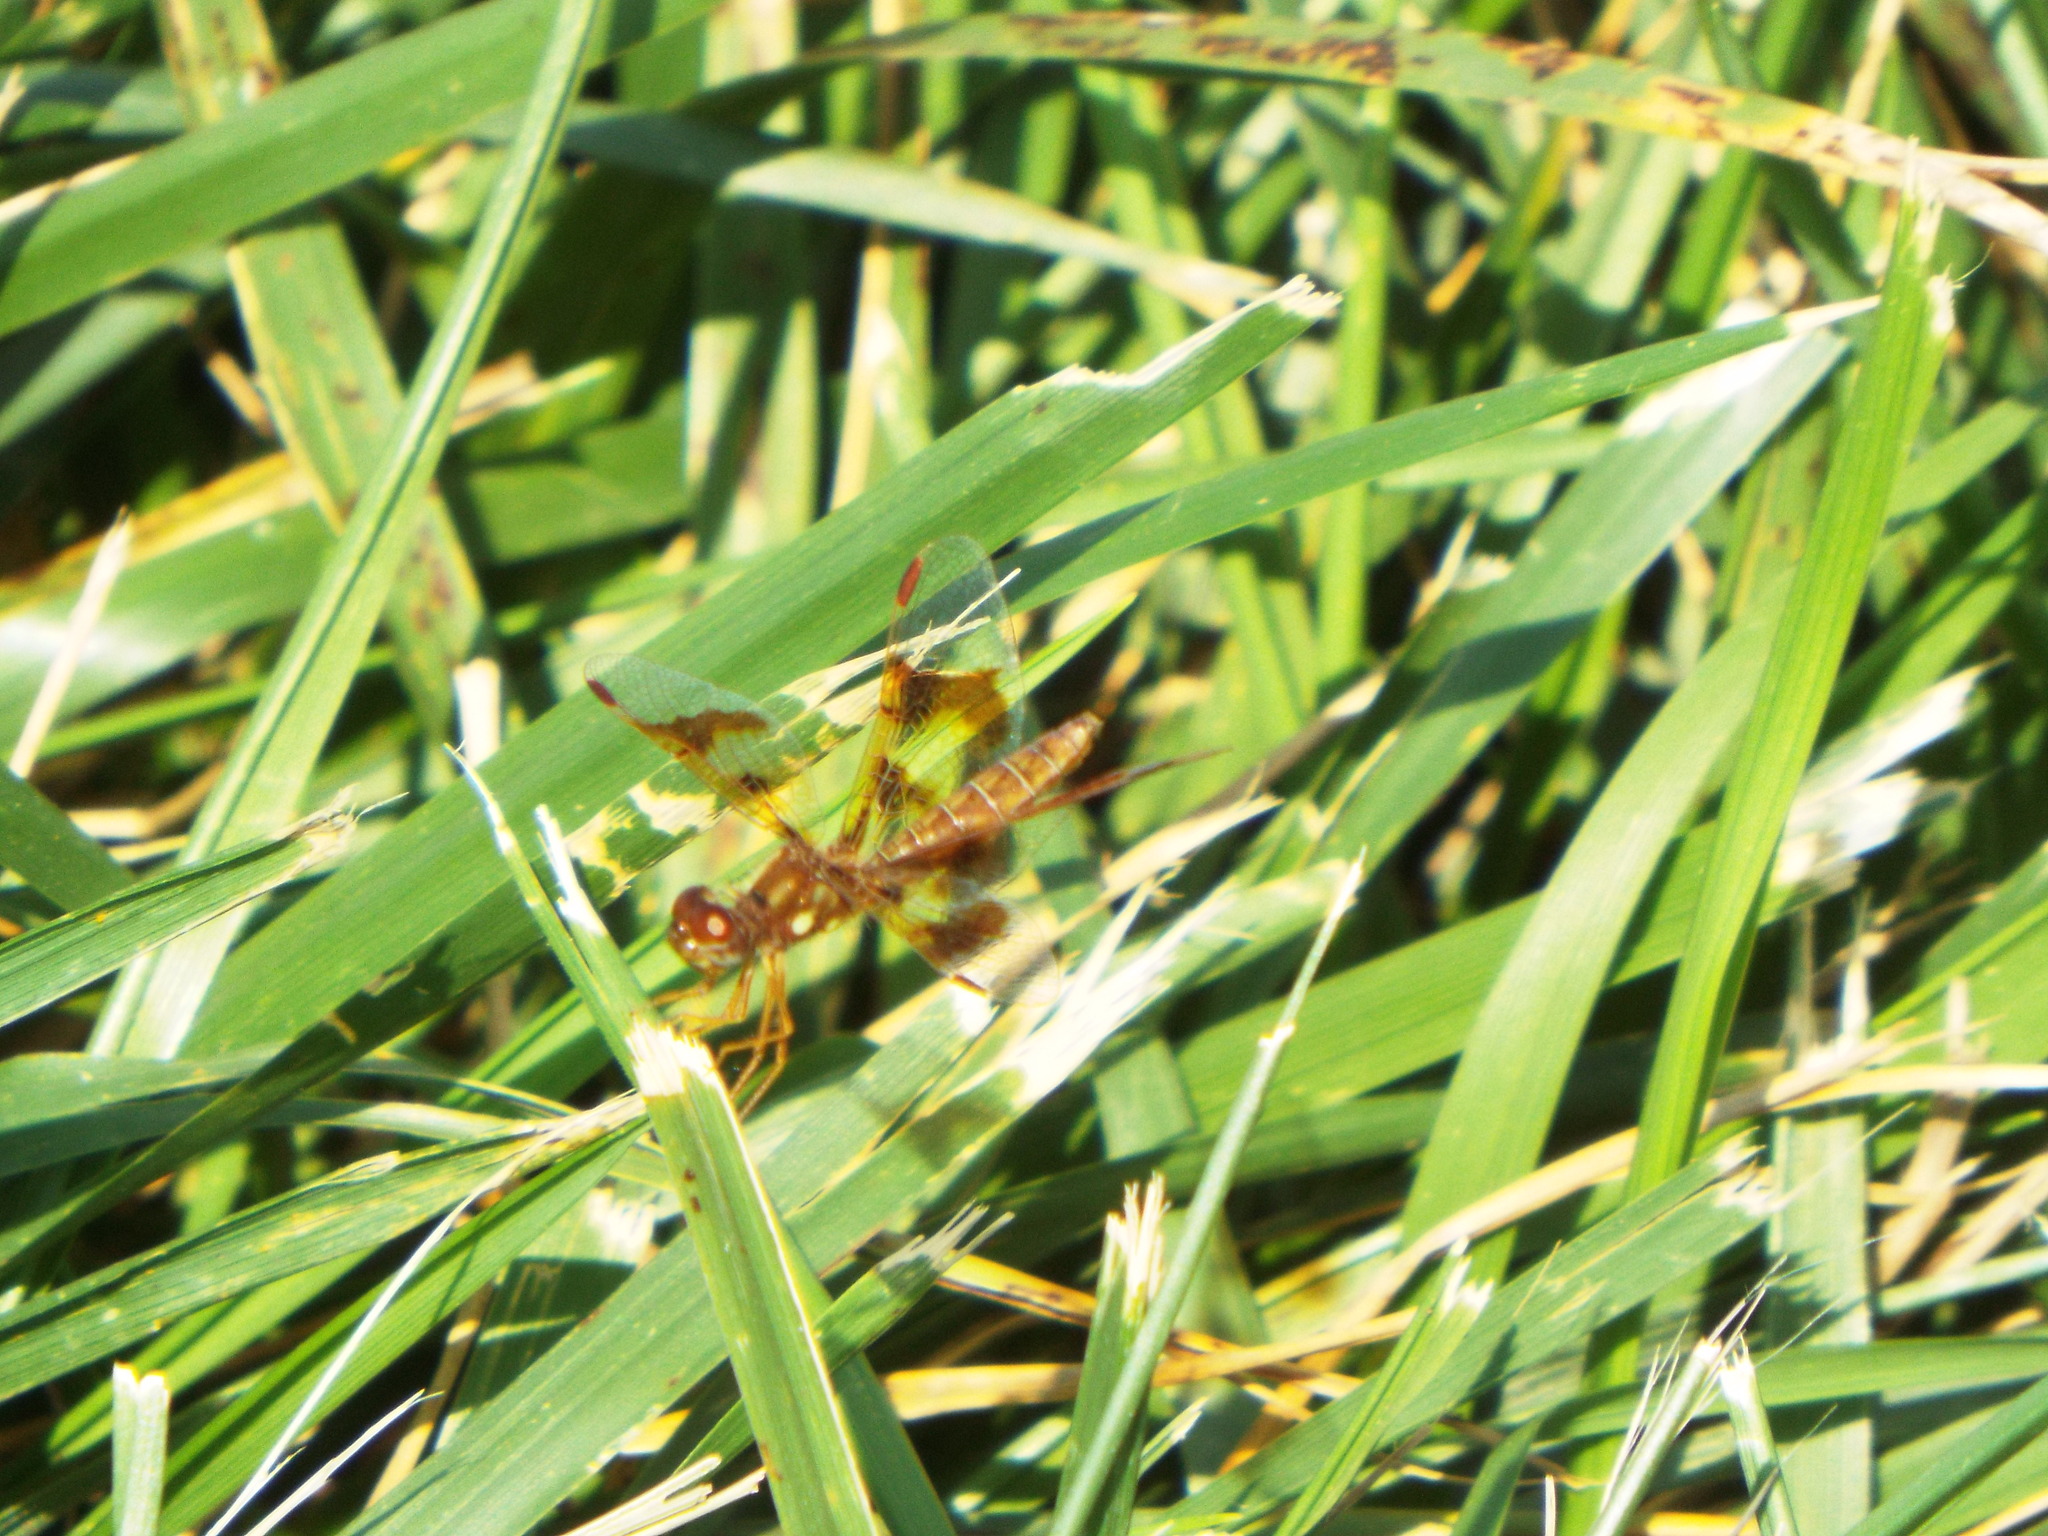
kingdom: Animalia
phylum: Arthropoda
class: Insecta
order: Odonata
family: Libellulidae
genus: Perithemis
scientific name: Perithemis tenera
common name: Eastern amberwing
